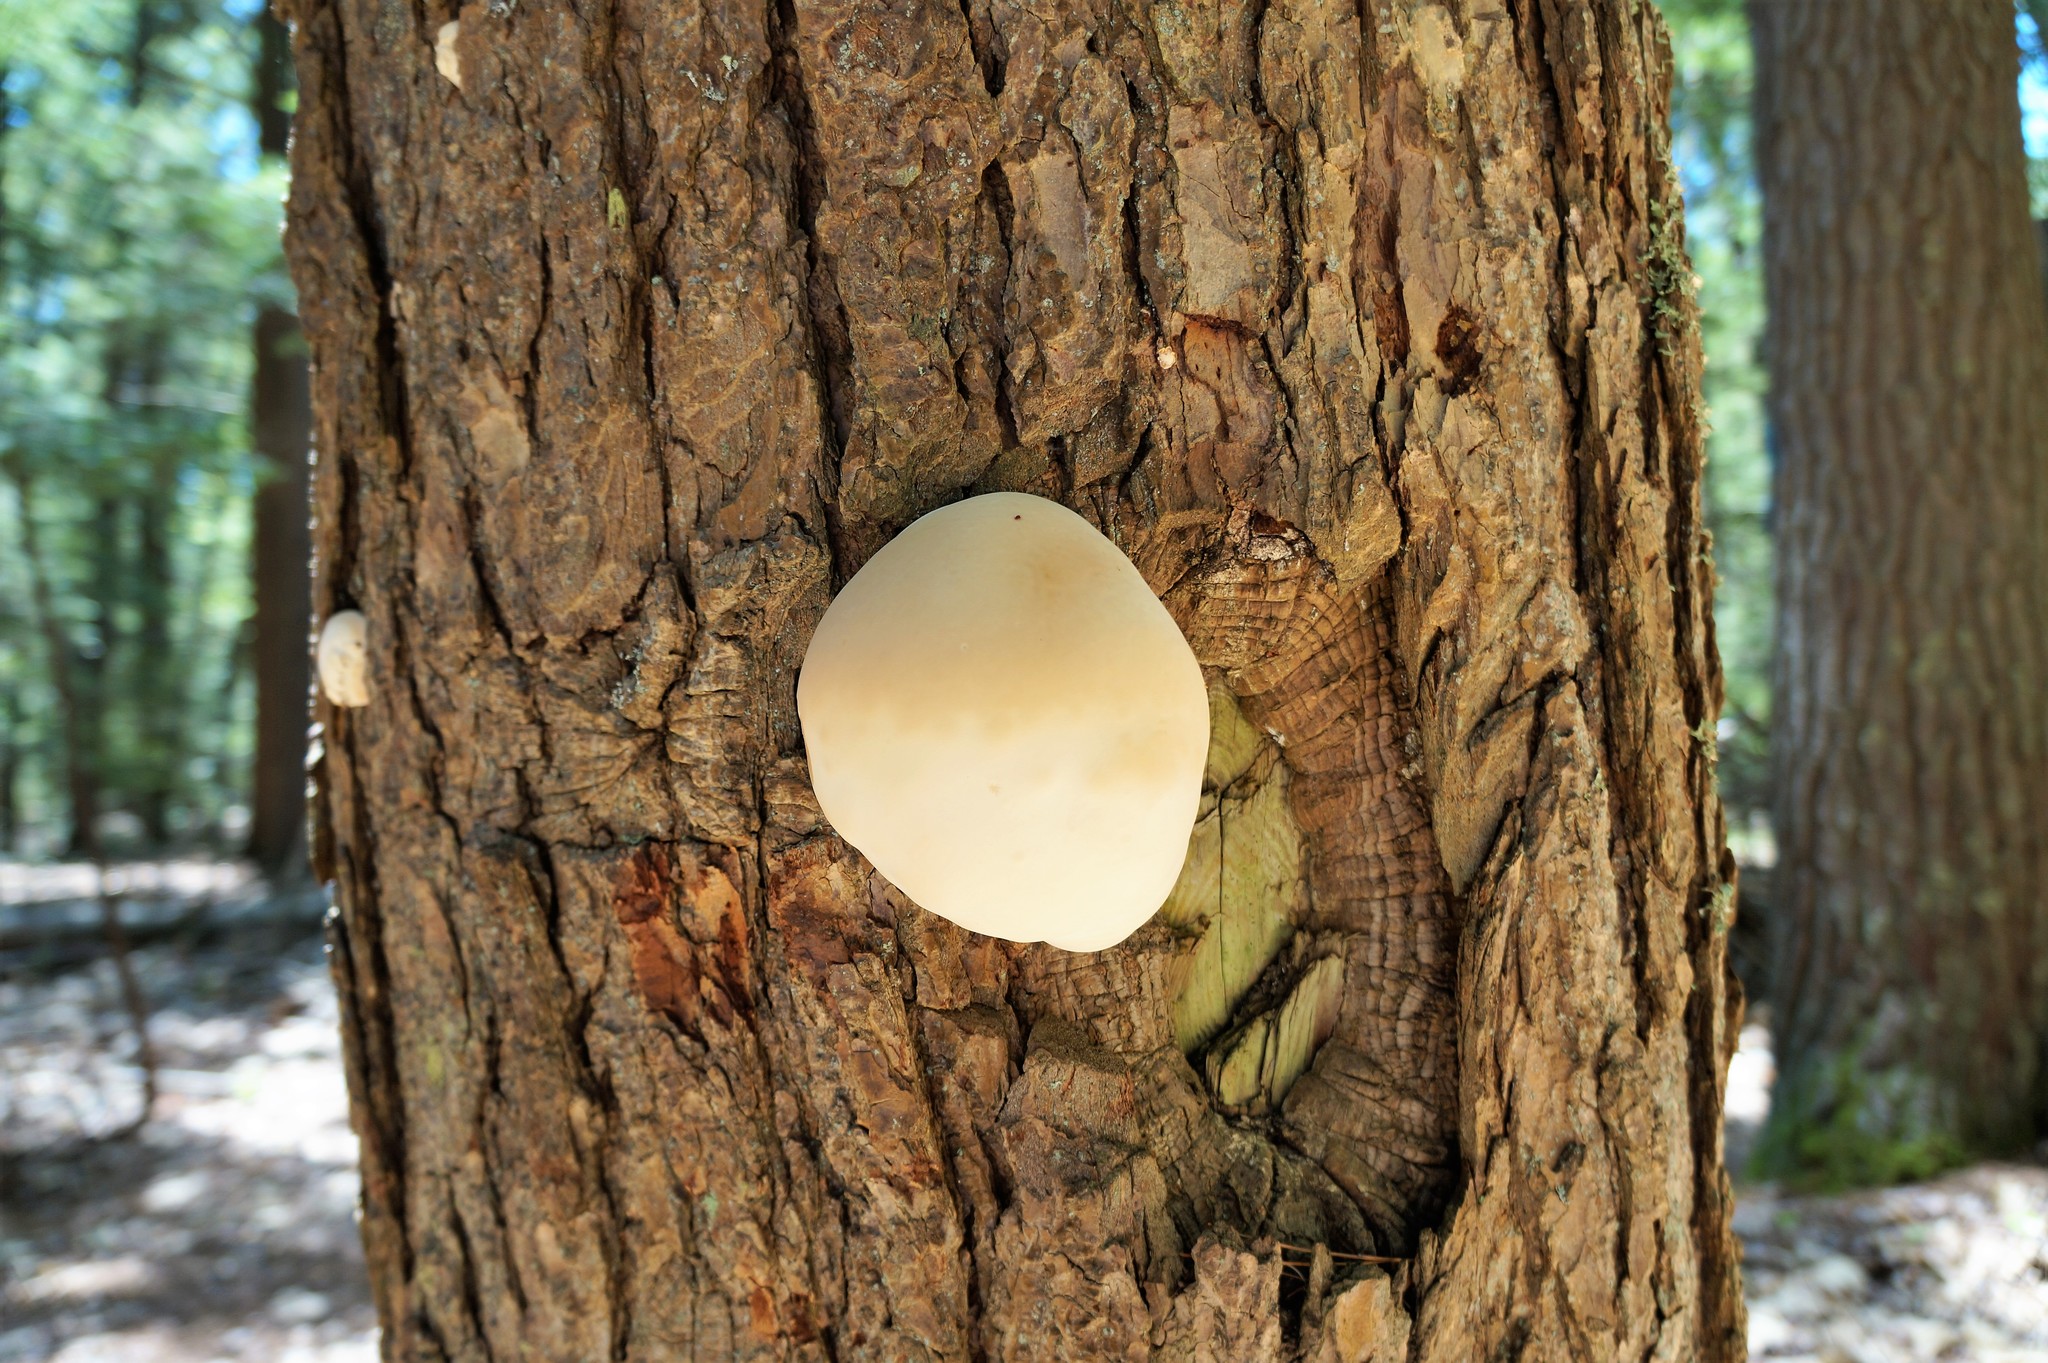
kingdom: Fungi
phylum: Basidiomycota
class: Agaricomycetes
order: Polyporales
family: Polyporaceae
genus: Ganoderma
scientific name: Ganoderma tsugae
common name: Hemlock varnish shelf
